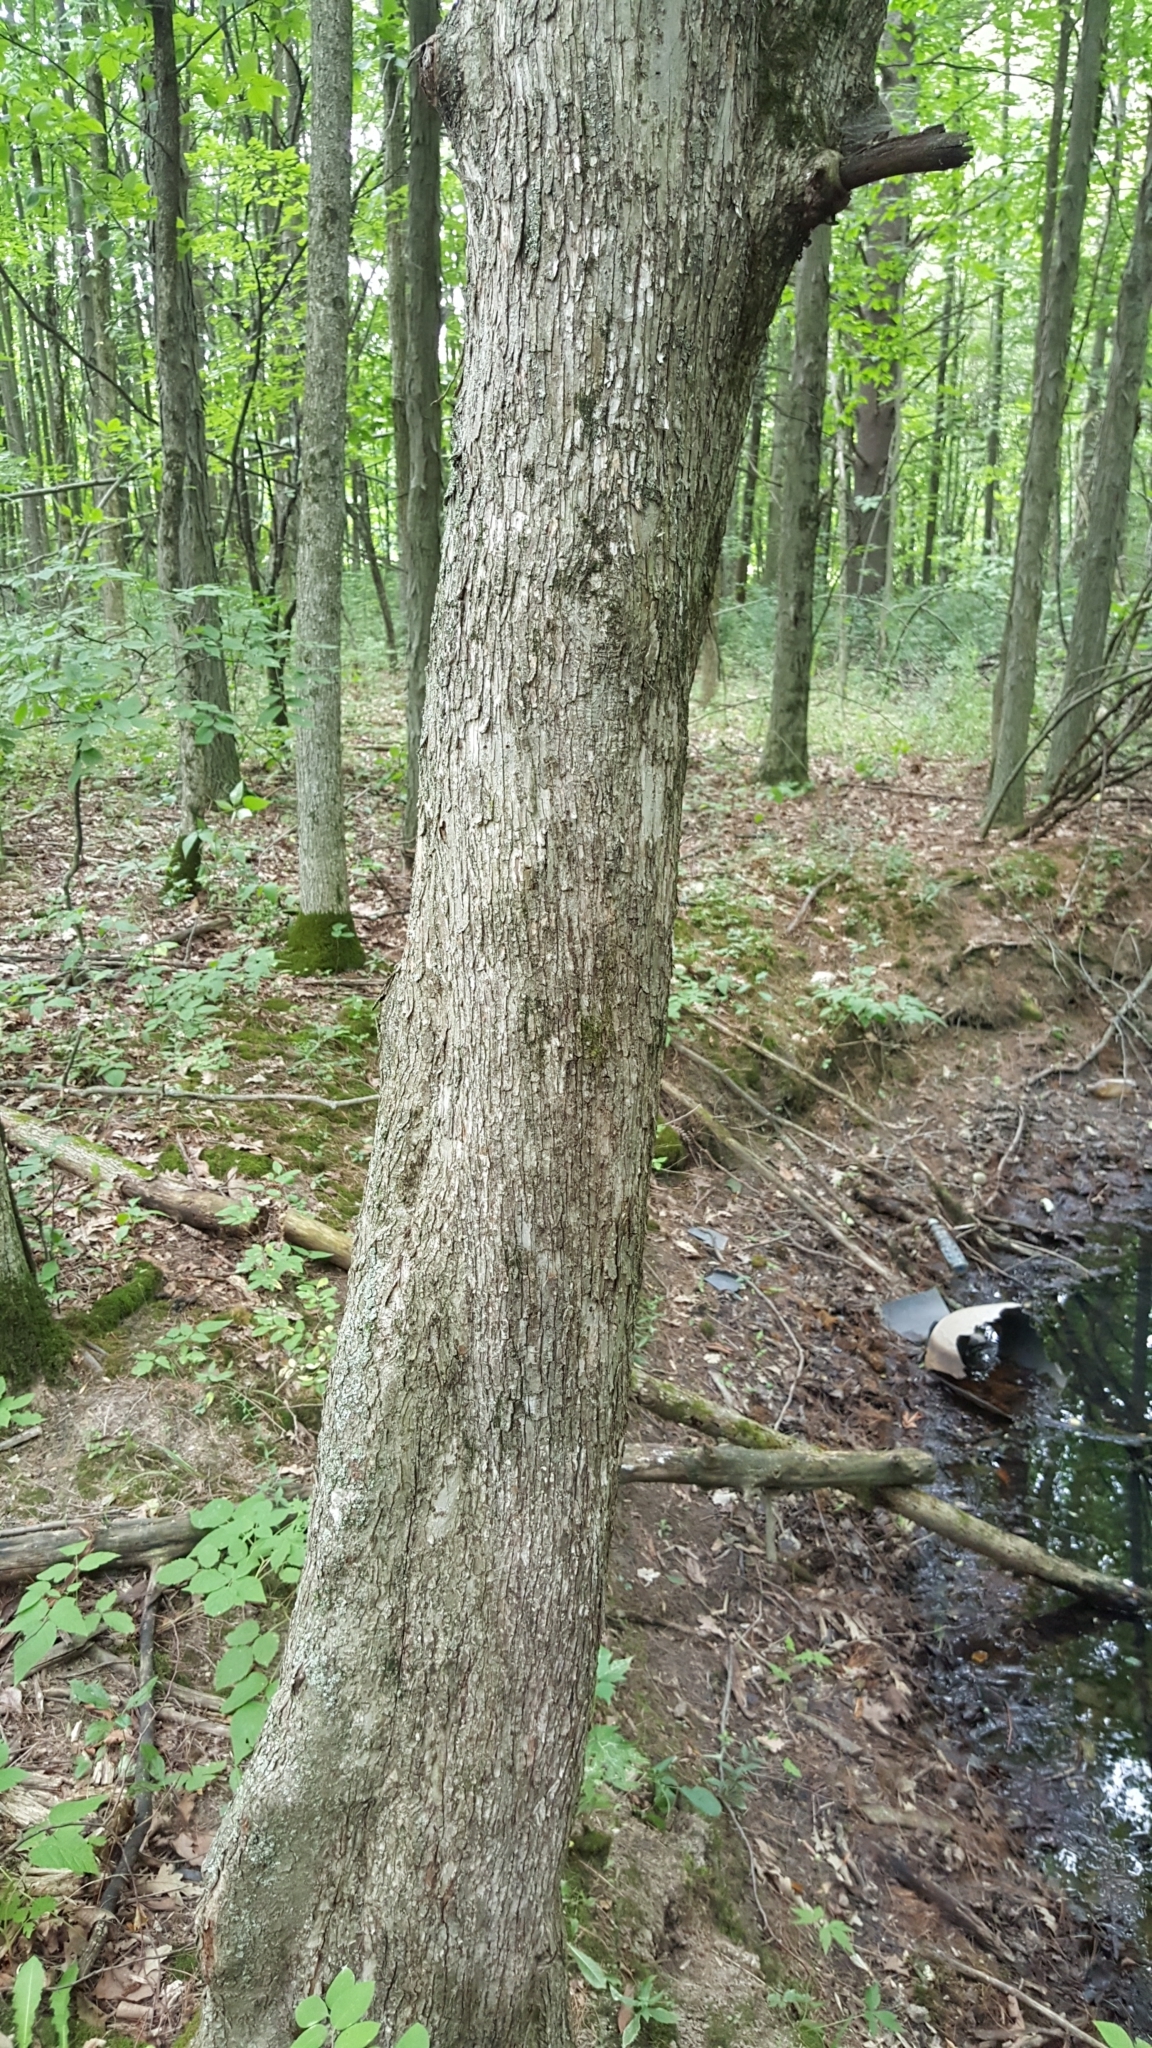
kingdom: Plantae
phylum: Tracheophyta
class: Magnoliopsida
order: Fagales
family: Betulaceae
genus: Ostrya
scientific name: Ostrya virginiana
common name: Ironwood
